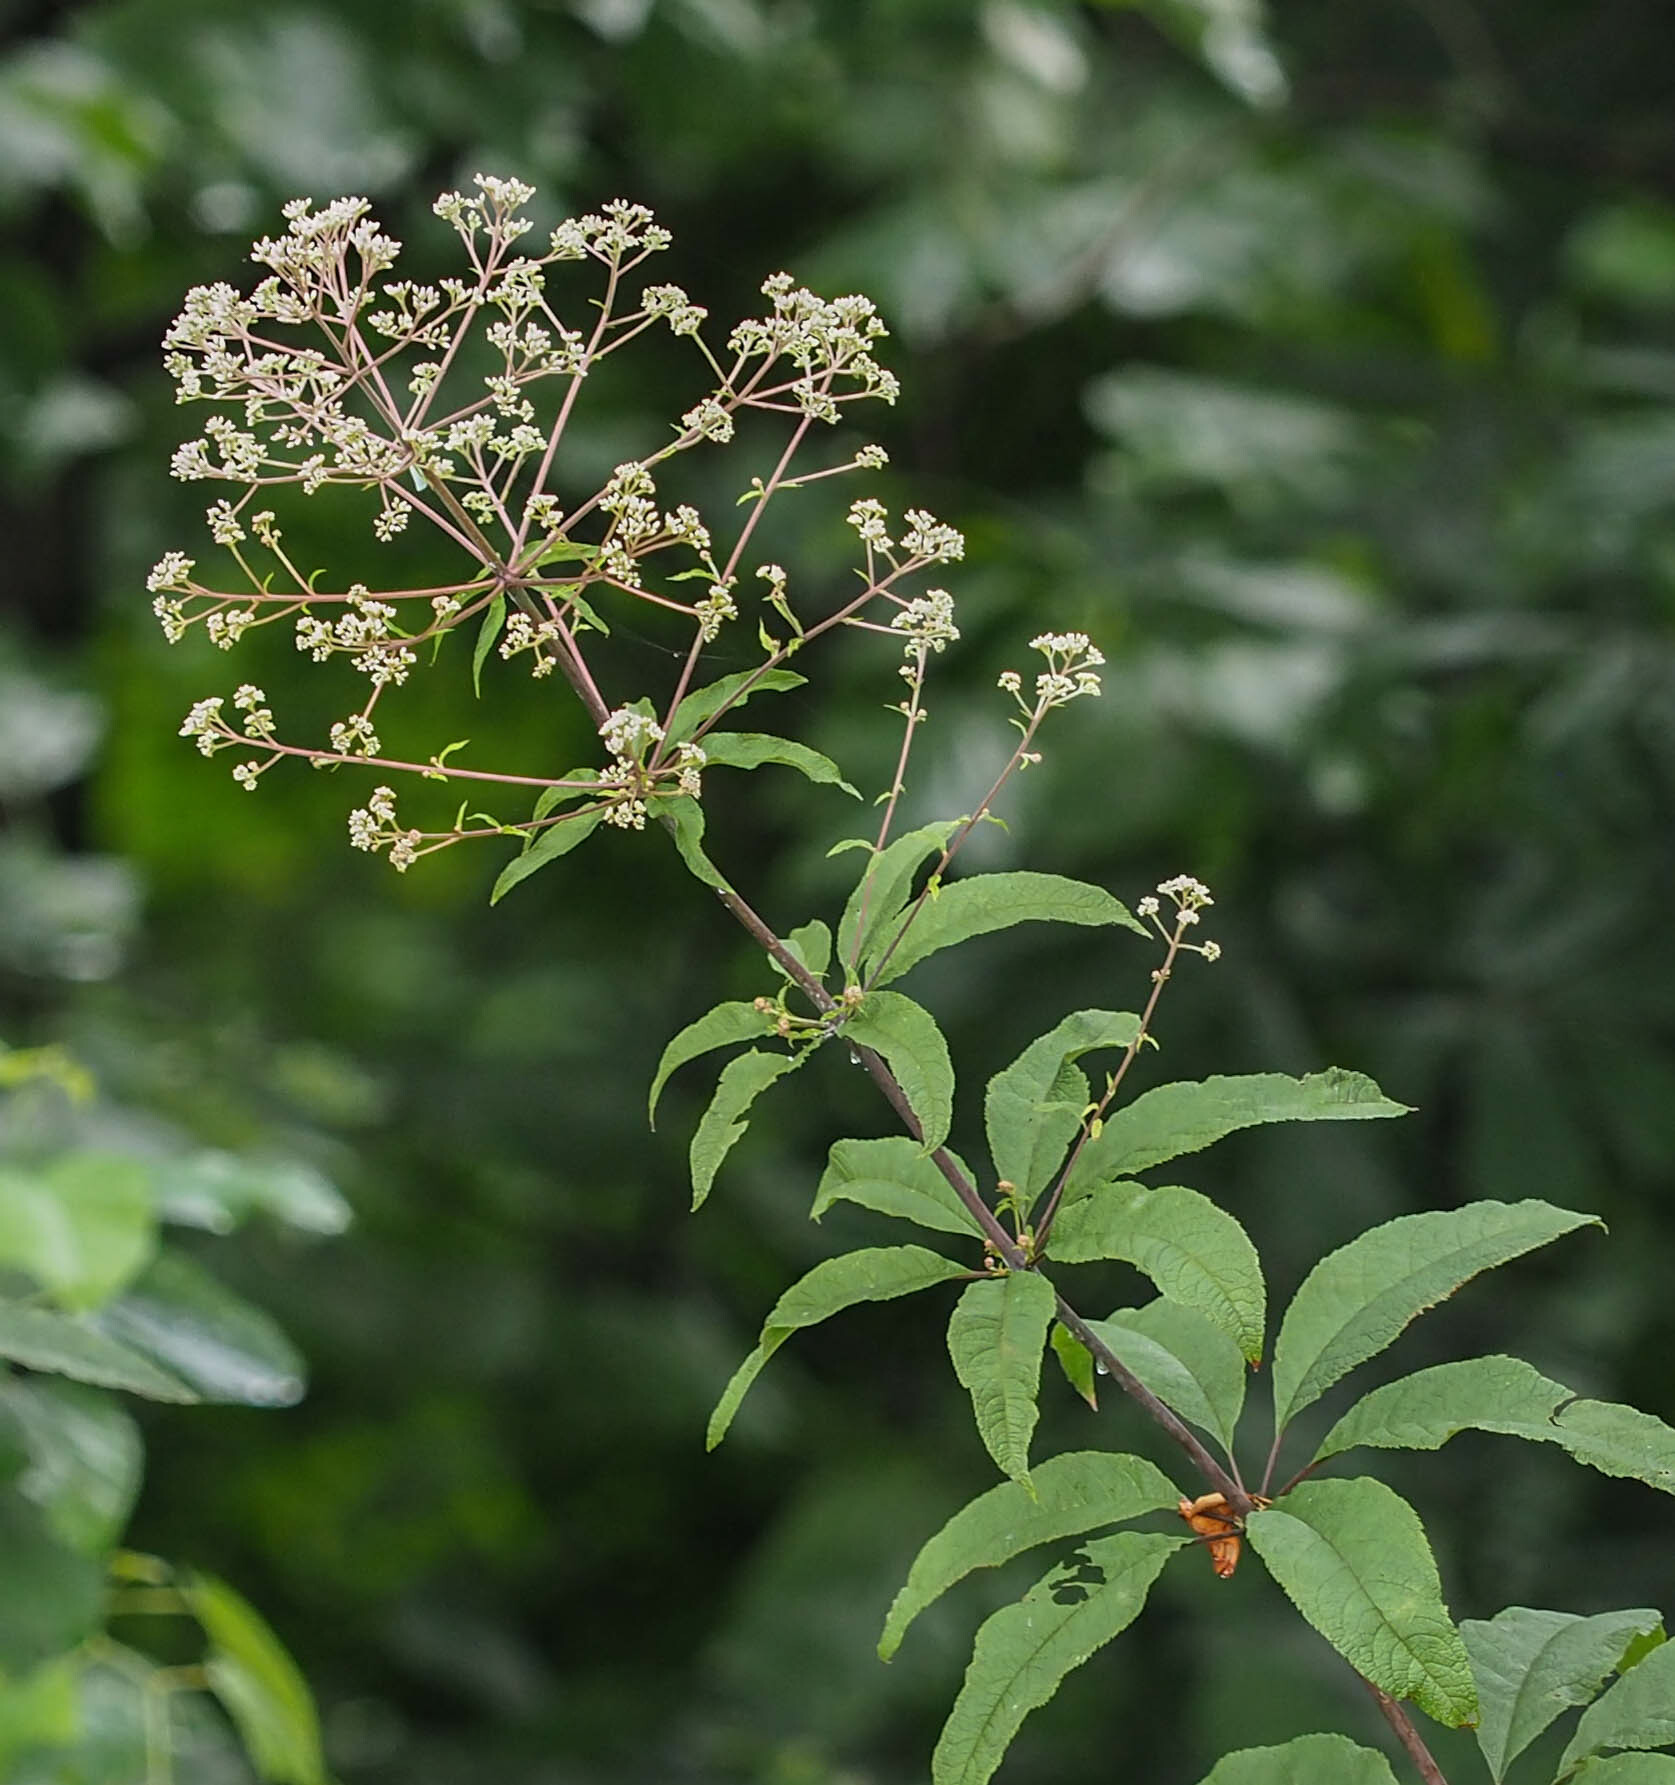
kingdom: Plantae
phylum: Tracheophyta
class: Magnoliopsida
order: Asterales
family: Asteraceae
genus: Eutrochium
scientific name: Eutrochium fistulosum
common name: Trumpetweed
